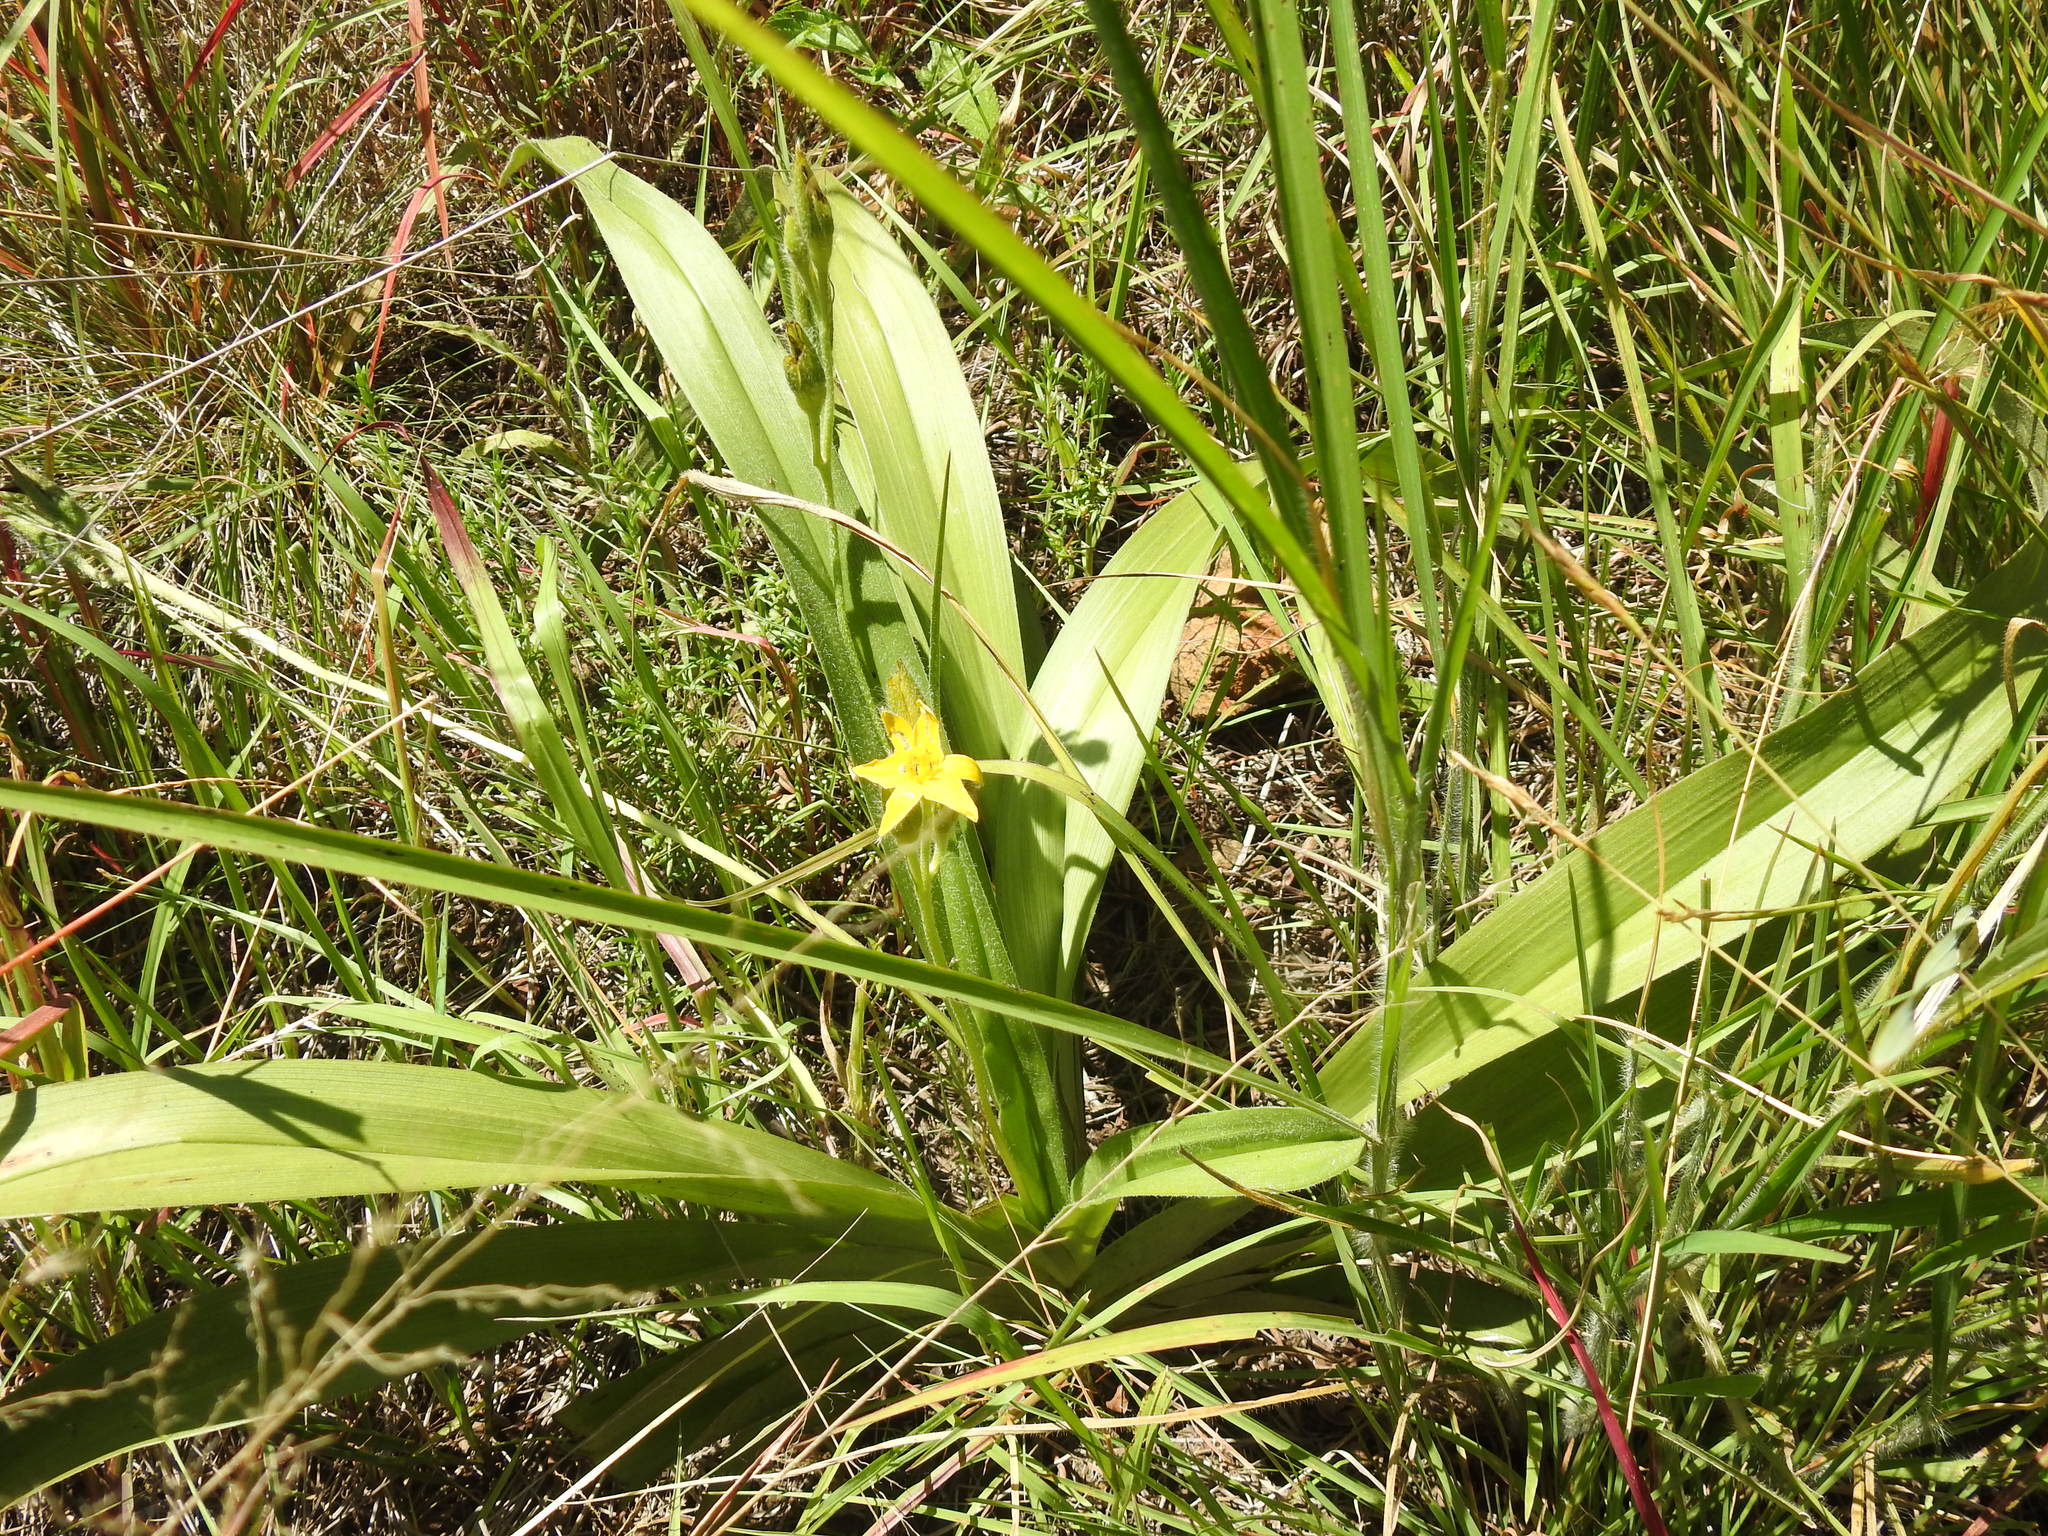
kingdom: Plantae
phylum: Tracheophyta
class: Liliopsida
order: Asparagales
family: Hypoxidaceae
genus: Hypoxis
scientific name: Hypoxis rigidula
